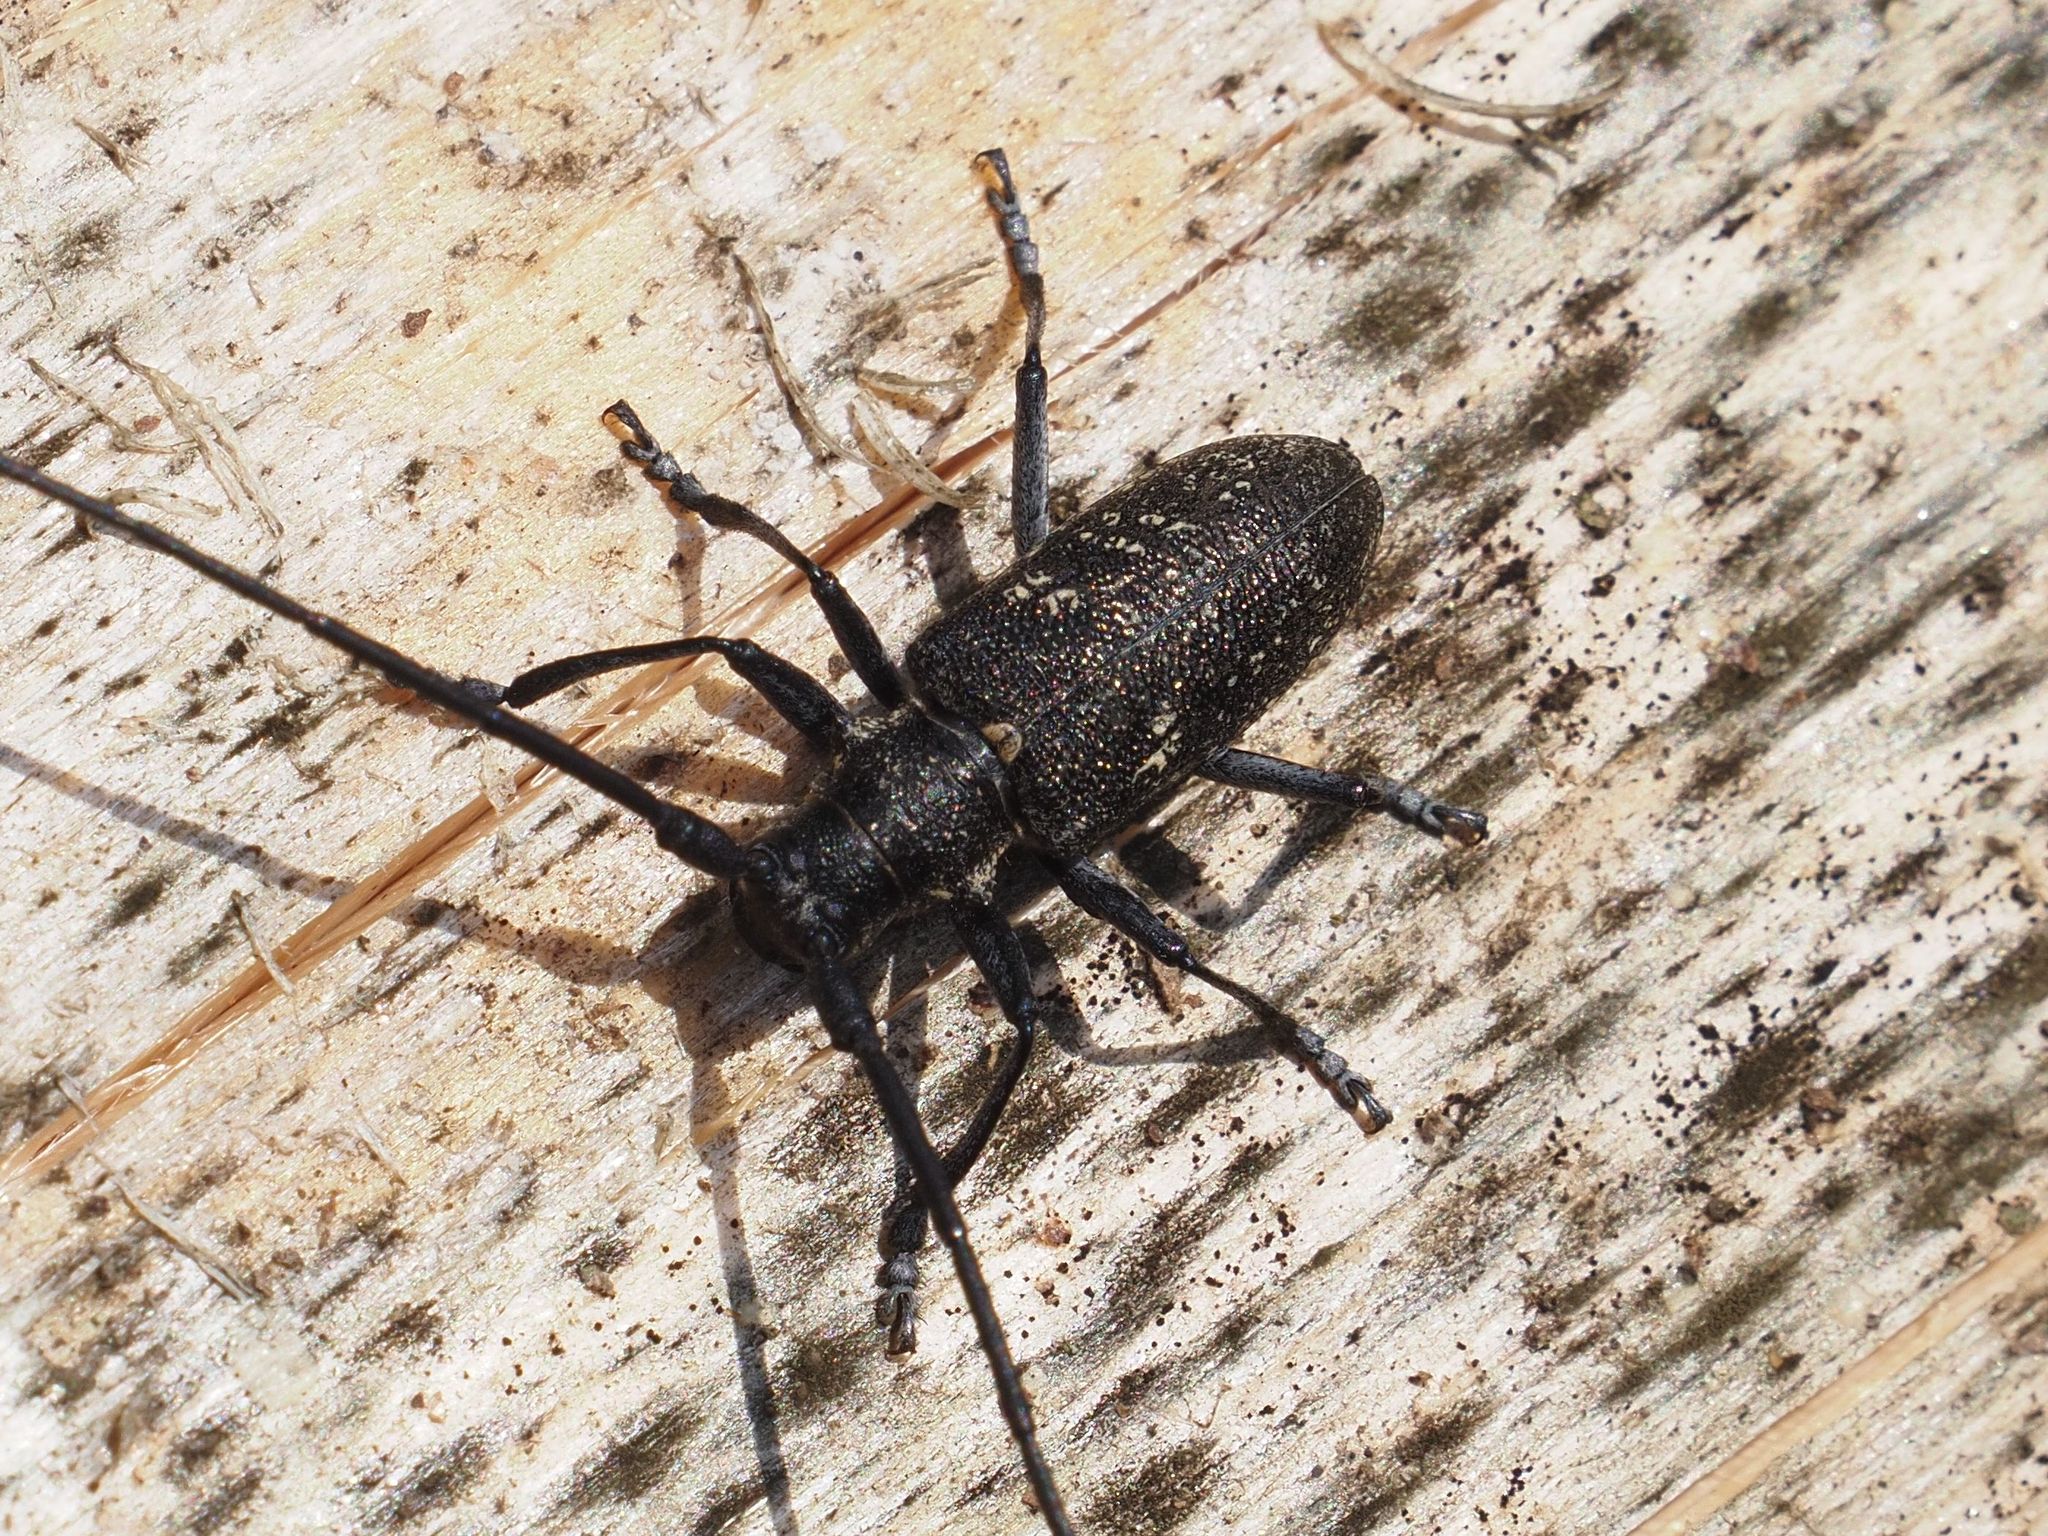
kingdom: Animalia
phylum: Arthropoda
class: Insecta
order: Coleoptera
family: Cerambycidae
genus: Monochamus
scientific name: Monochamus sutor
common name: Pine sawyer
